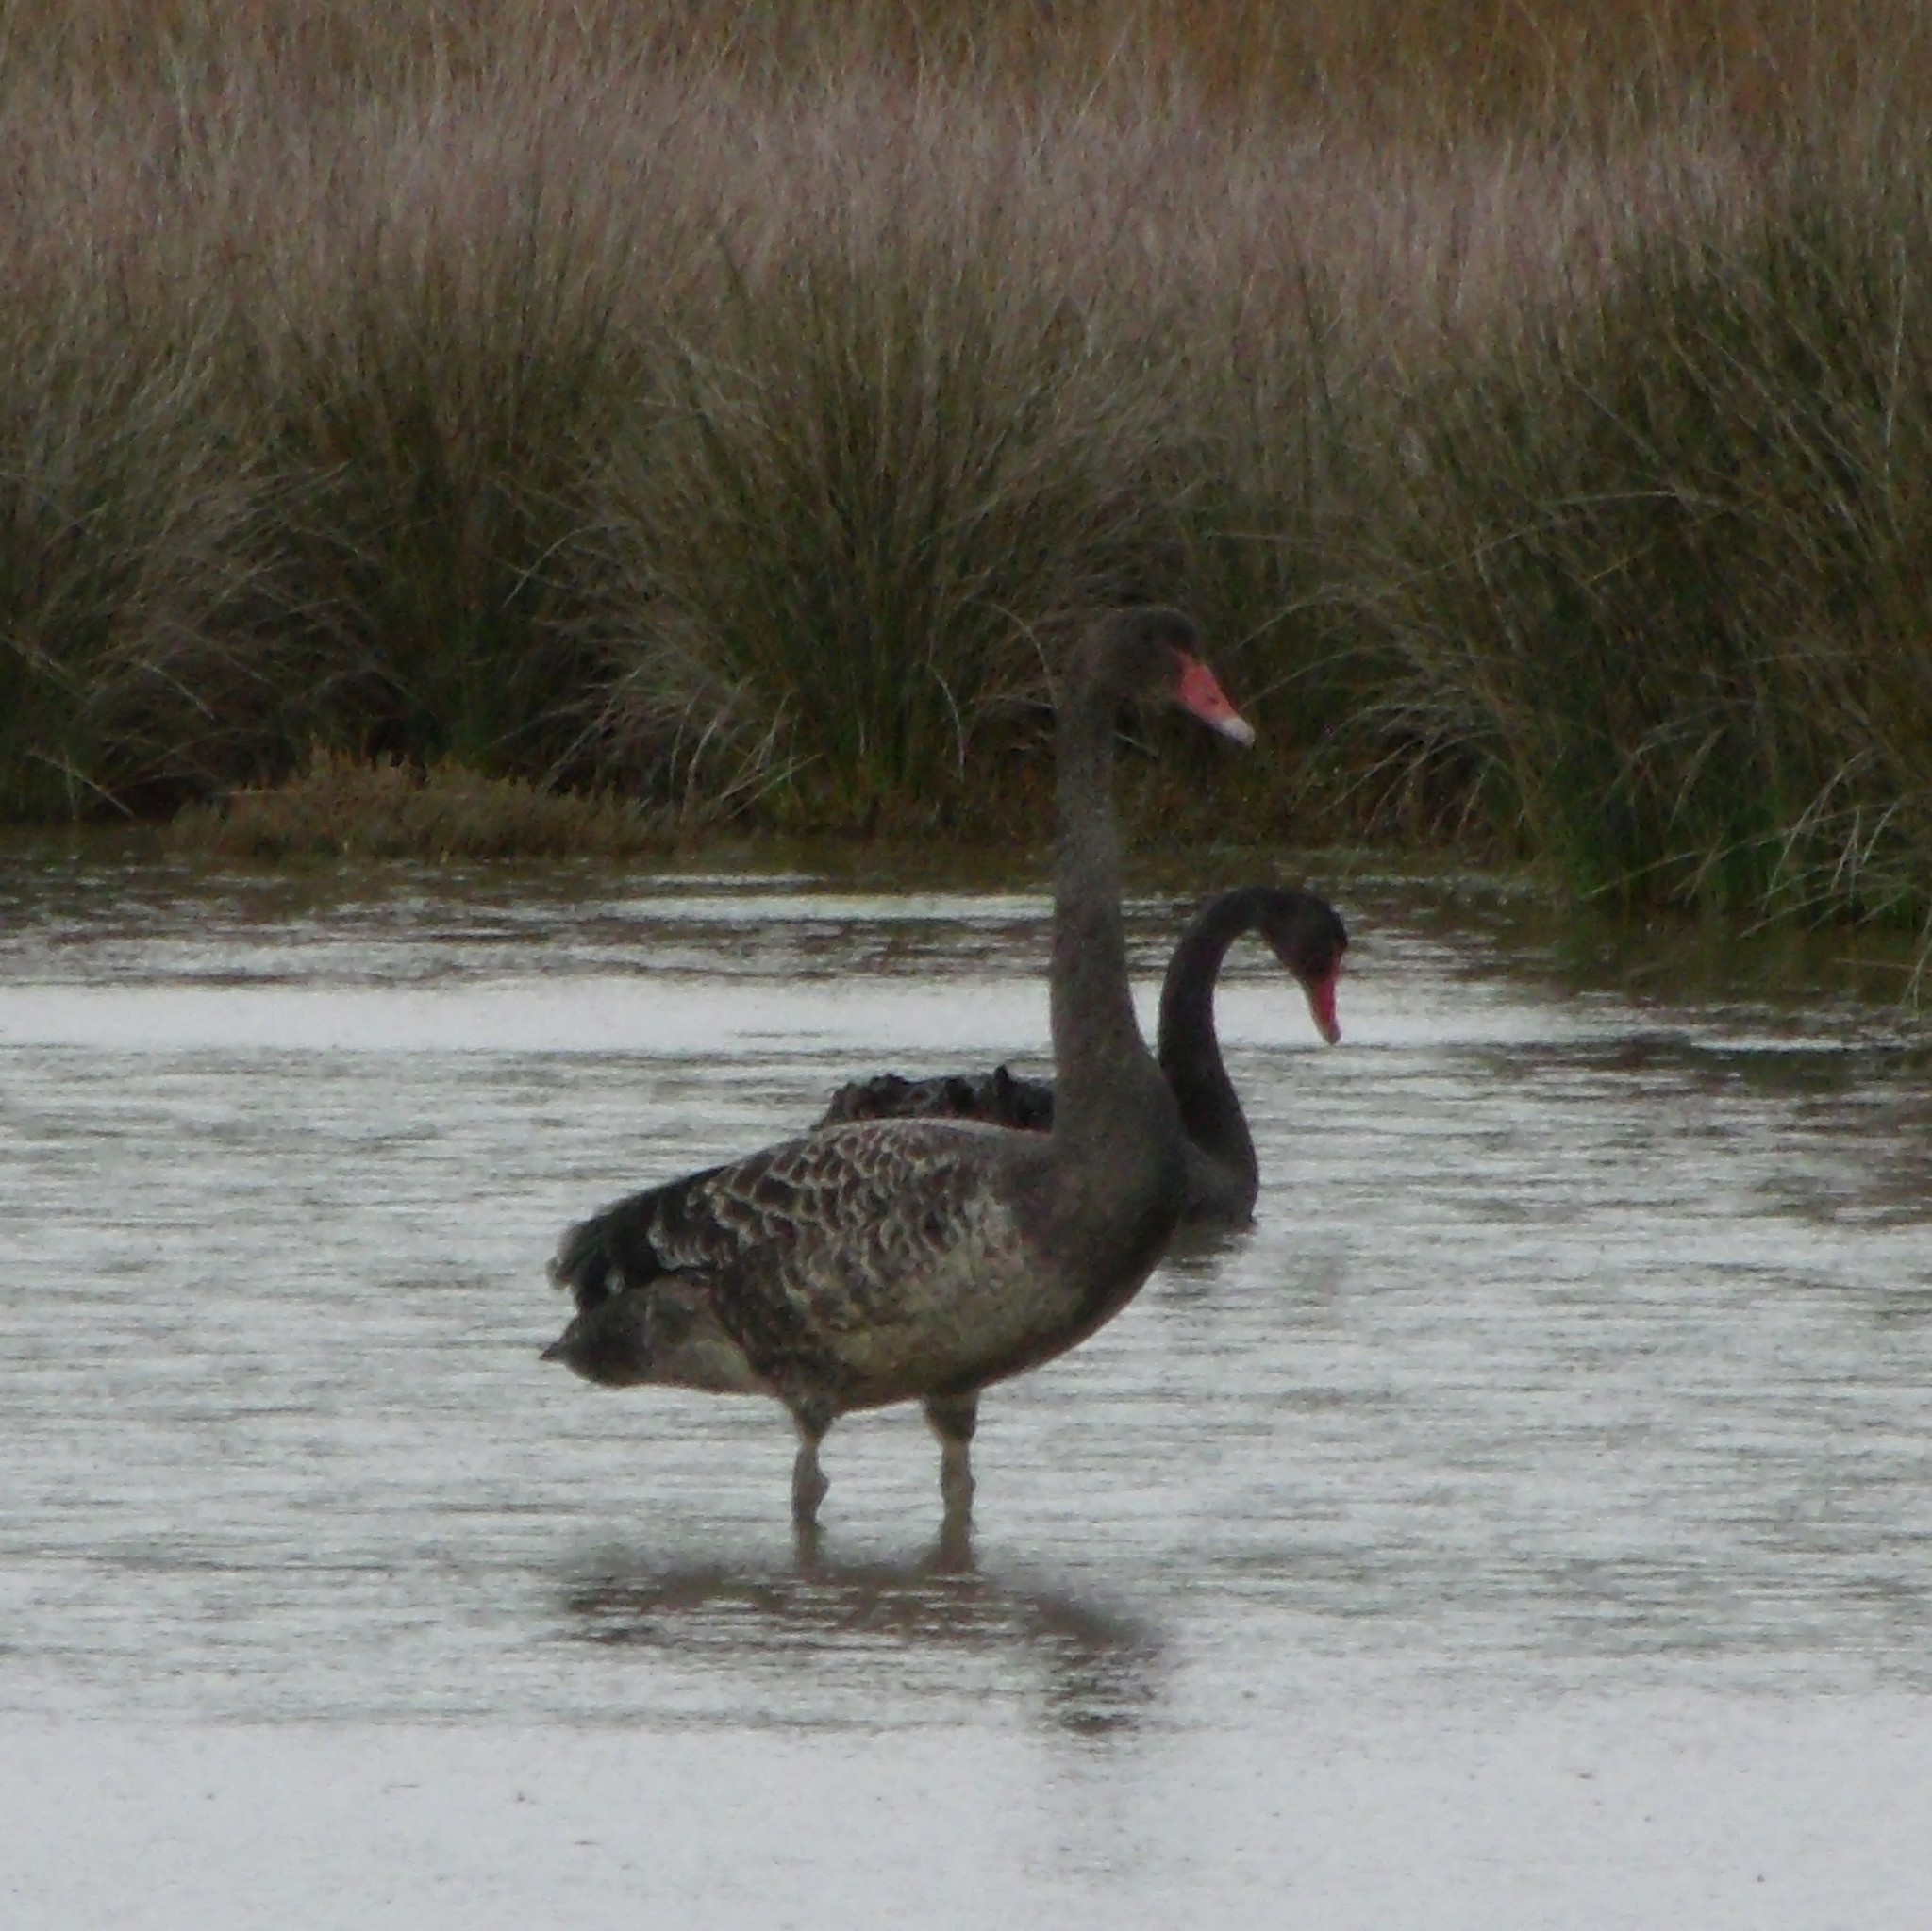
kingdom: Animalia
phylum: Chordata
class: Aves
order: Anseriformes
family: Anatidae
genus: Cygnus
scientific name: Cygnus atratus
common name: Black swan
